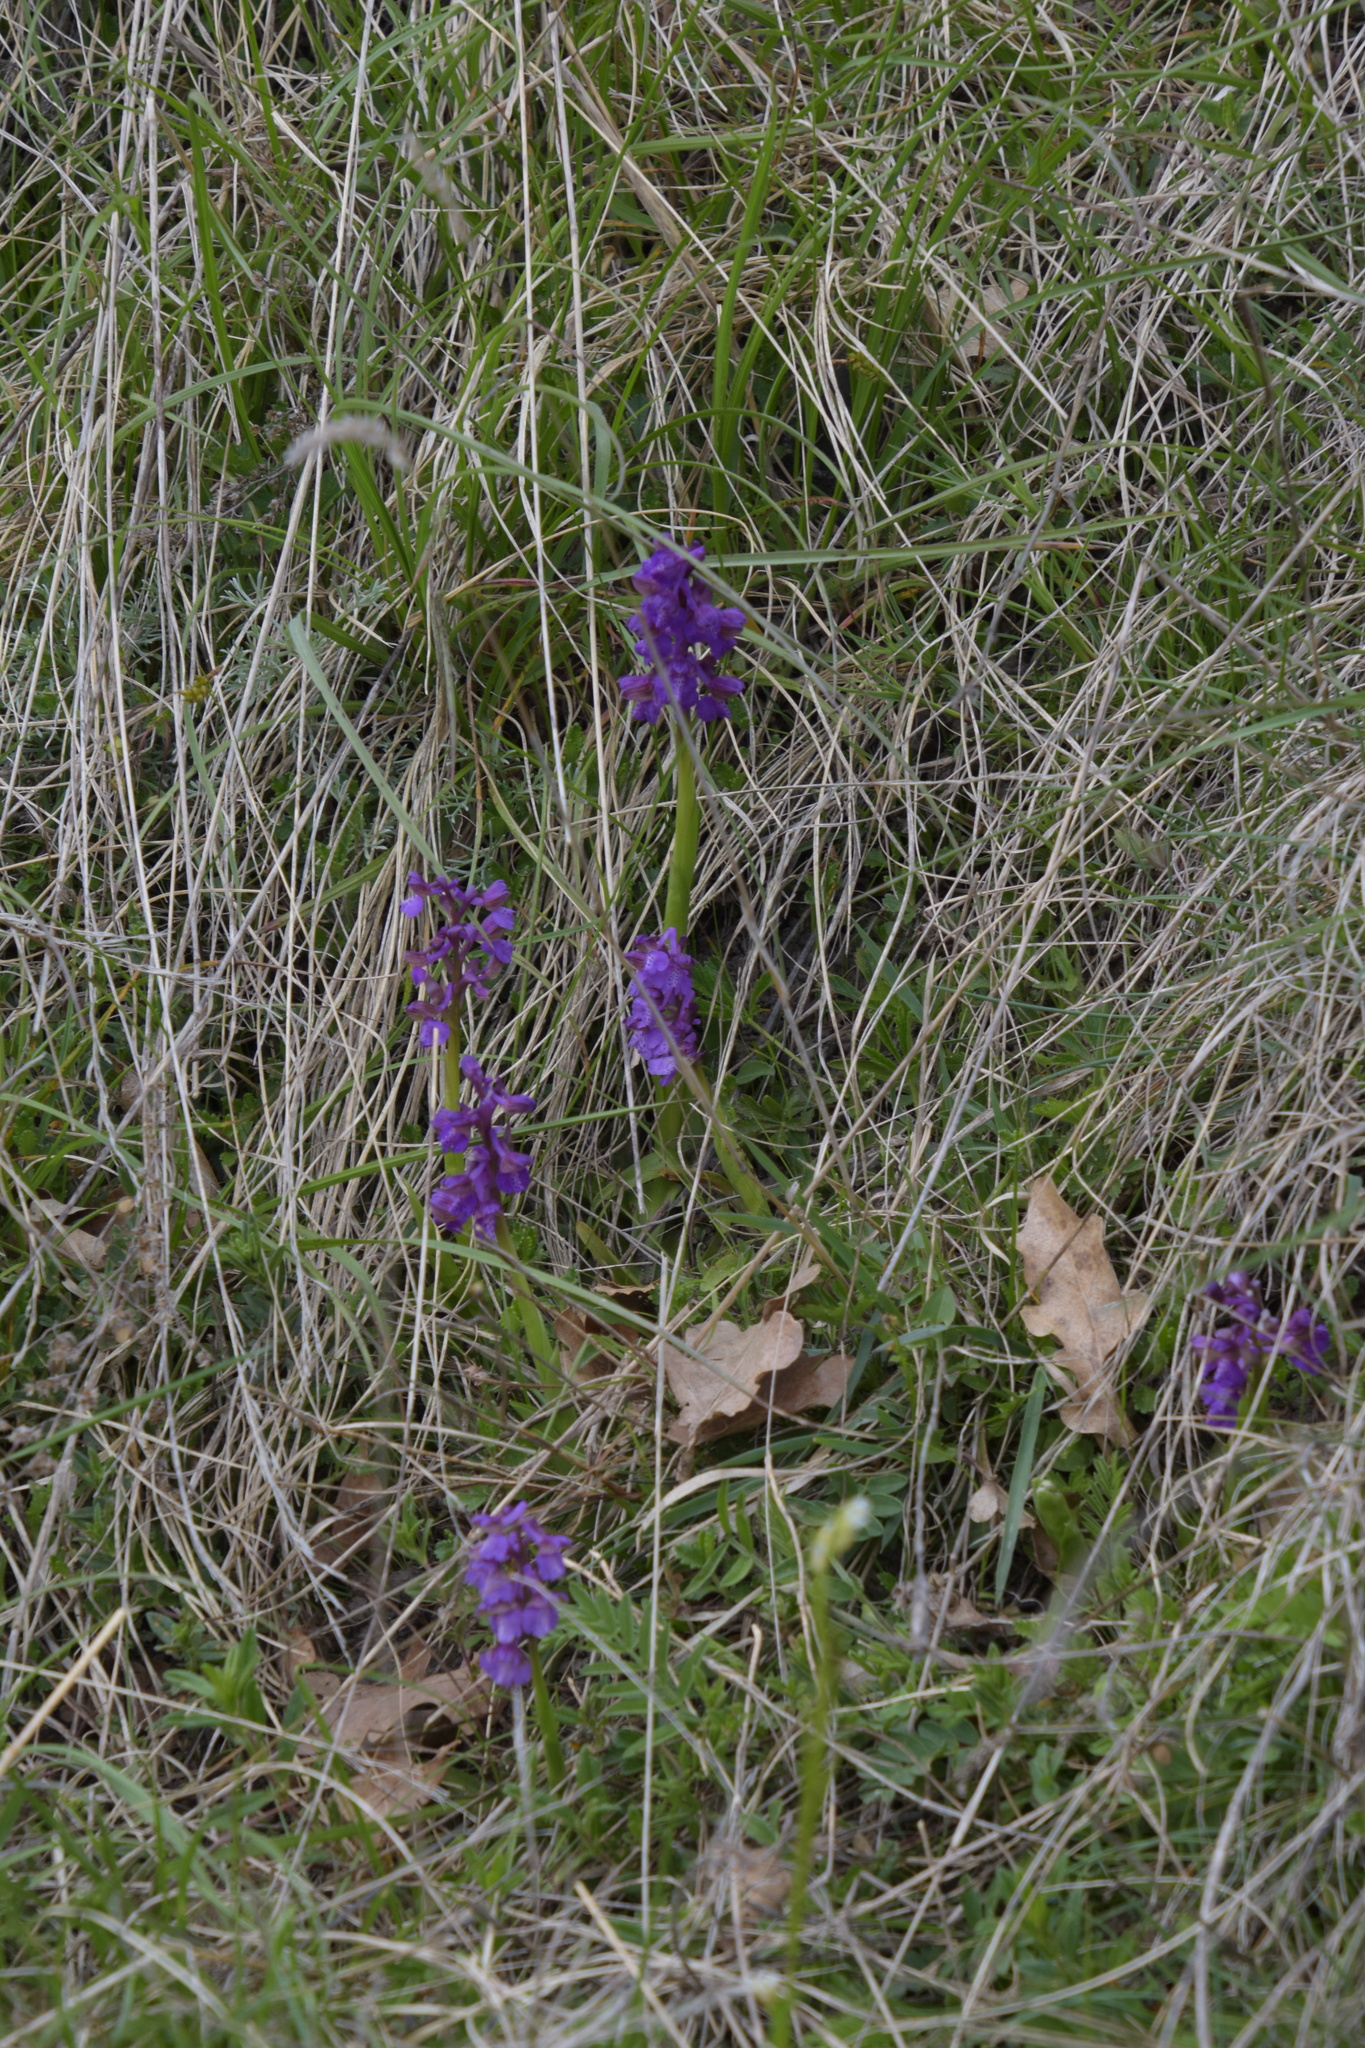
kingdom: Plantae
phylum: Tracheophyta
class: Liliopsida
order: Asparagales
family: Orchidaceae
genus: Anacamptis
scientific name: Anacamptis morio
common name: Green-winged orchid
